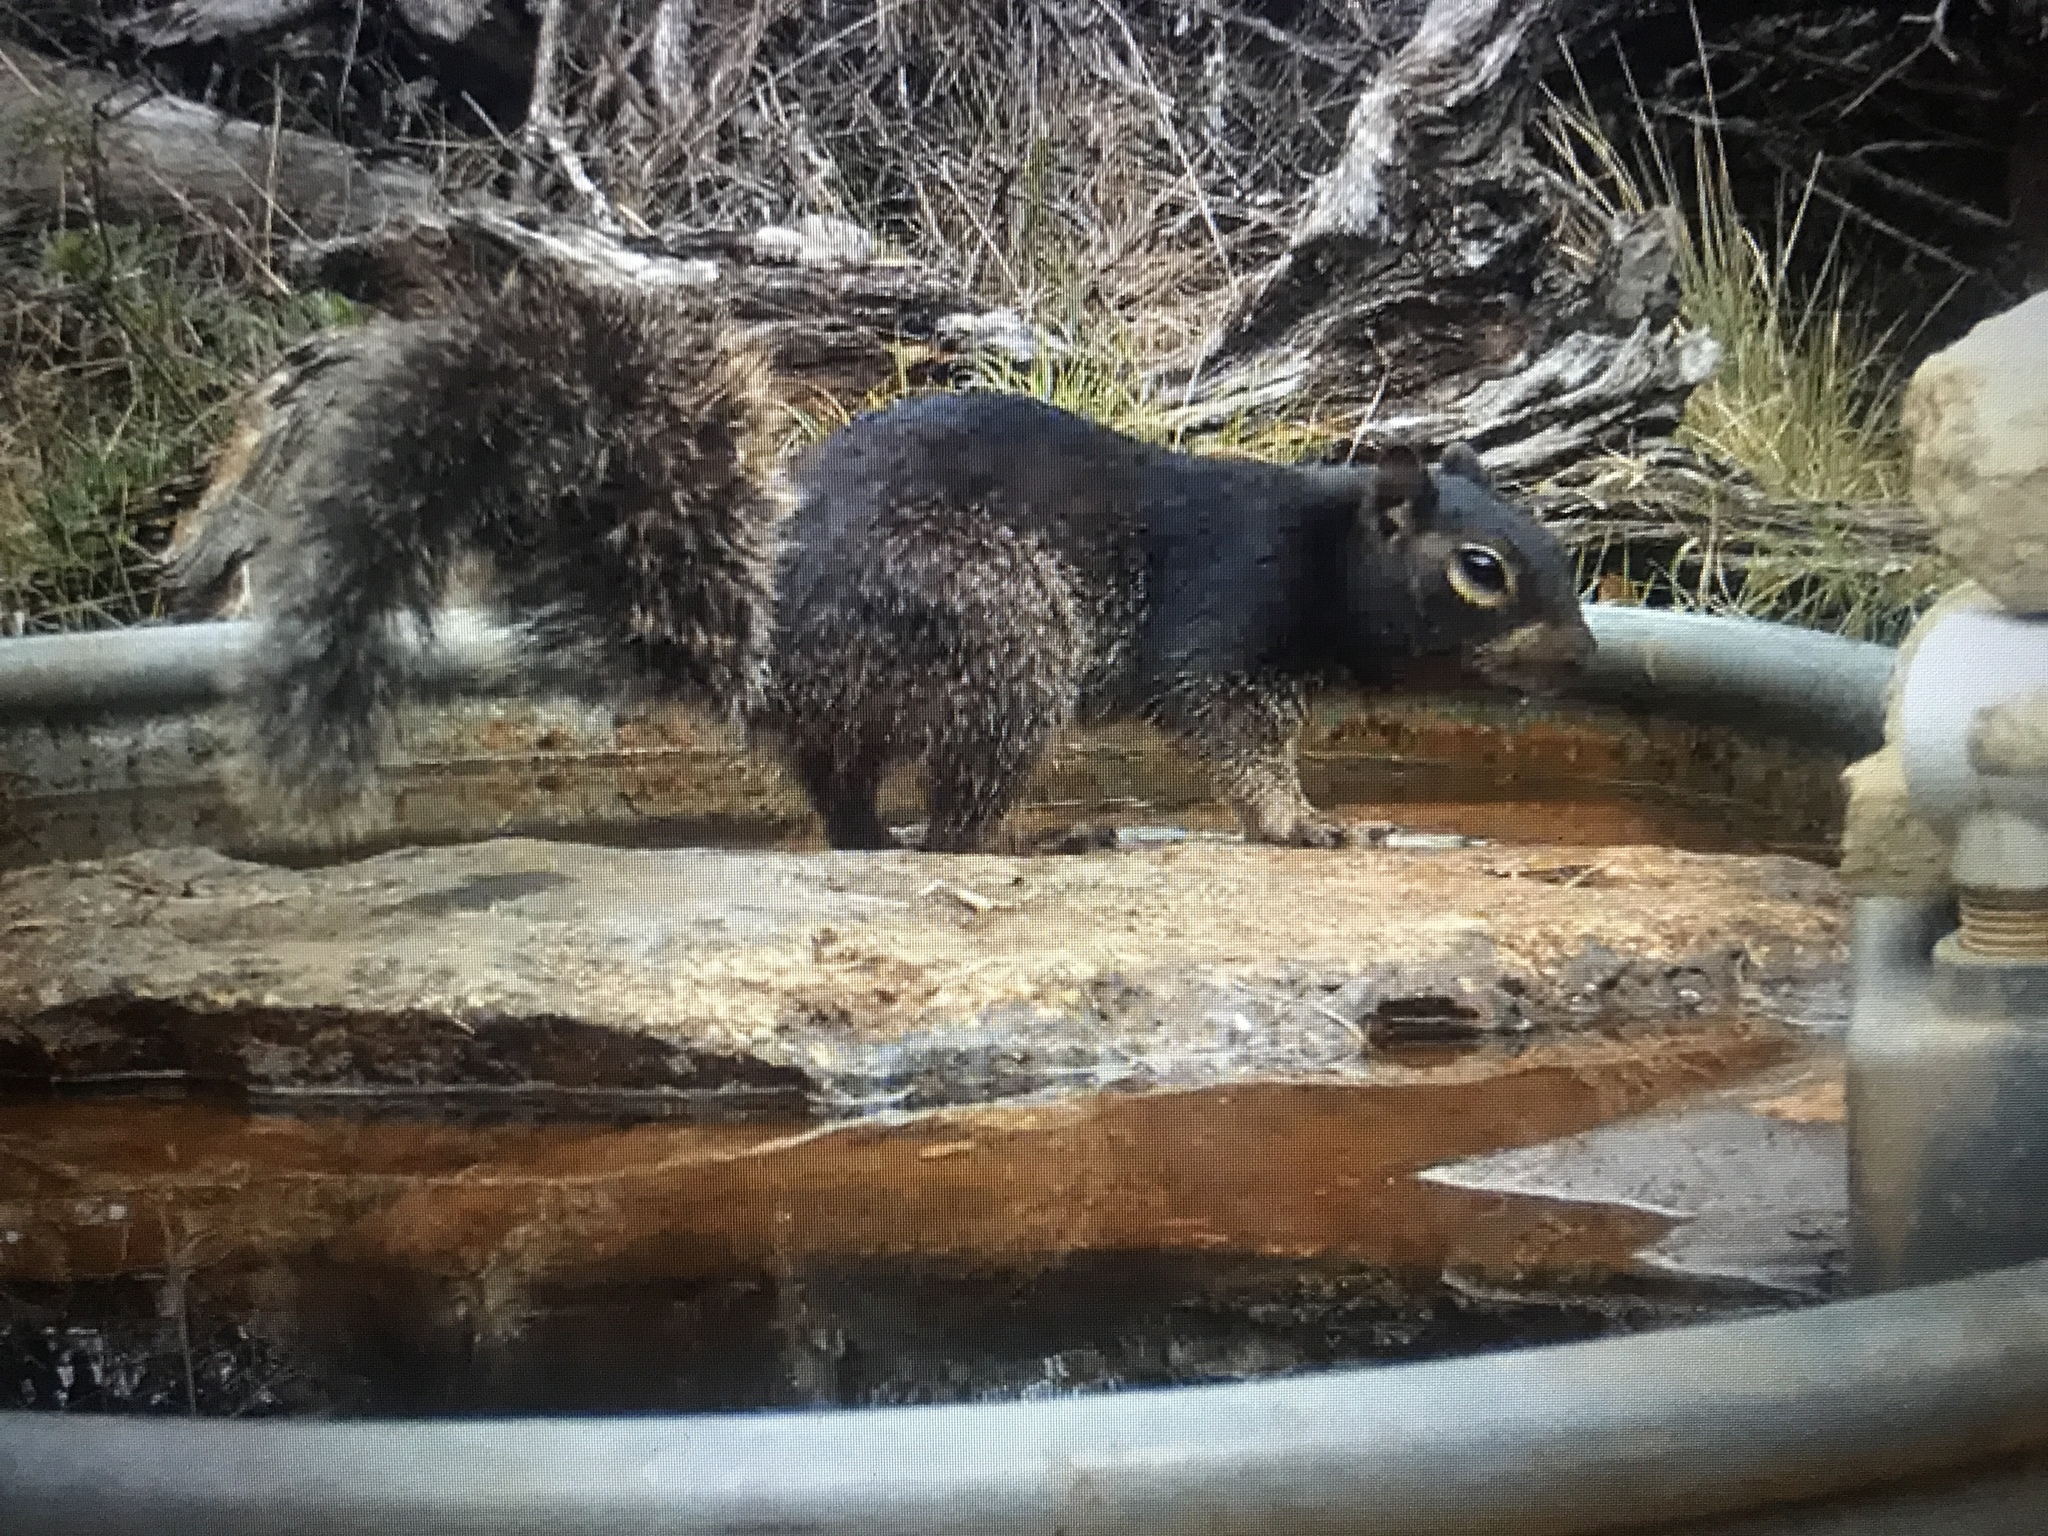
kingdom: Animalia
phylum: Chordata
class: Mammalia
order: Rodentia
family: Sciuridae
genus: Otospermophilus
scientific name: Otospermophilus variegatus
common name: Rock squirrel
